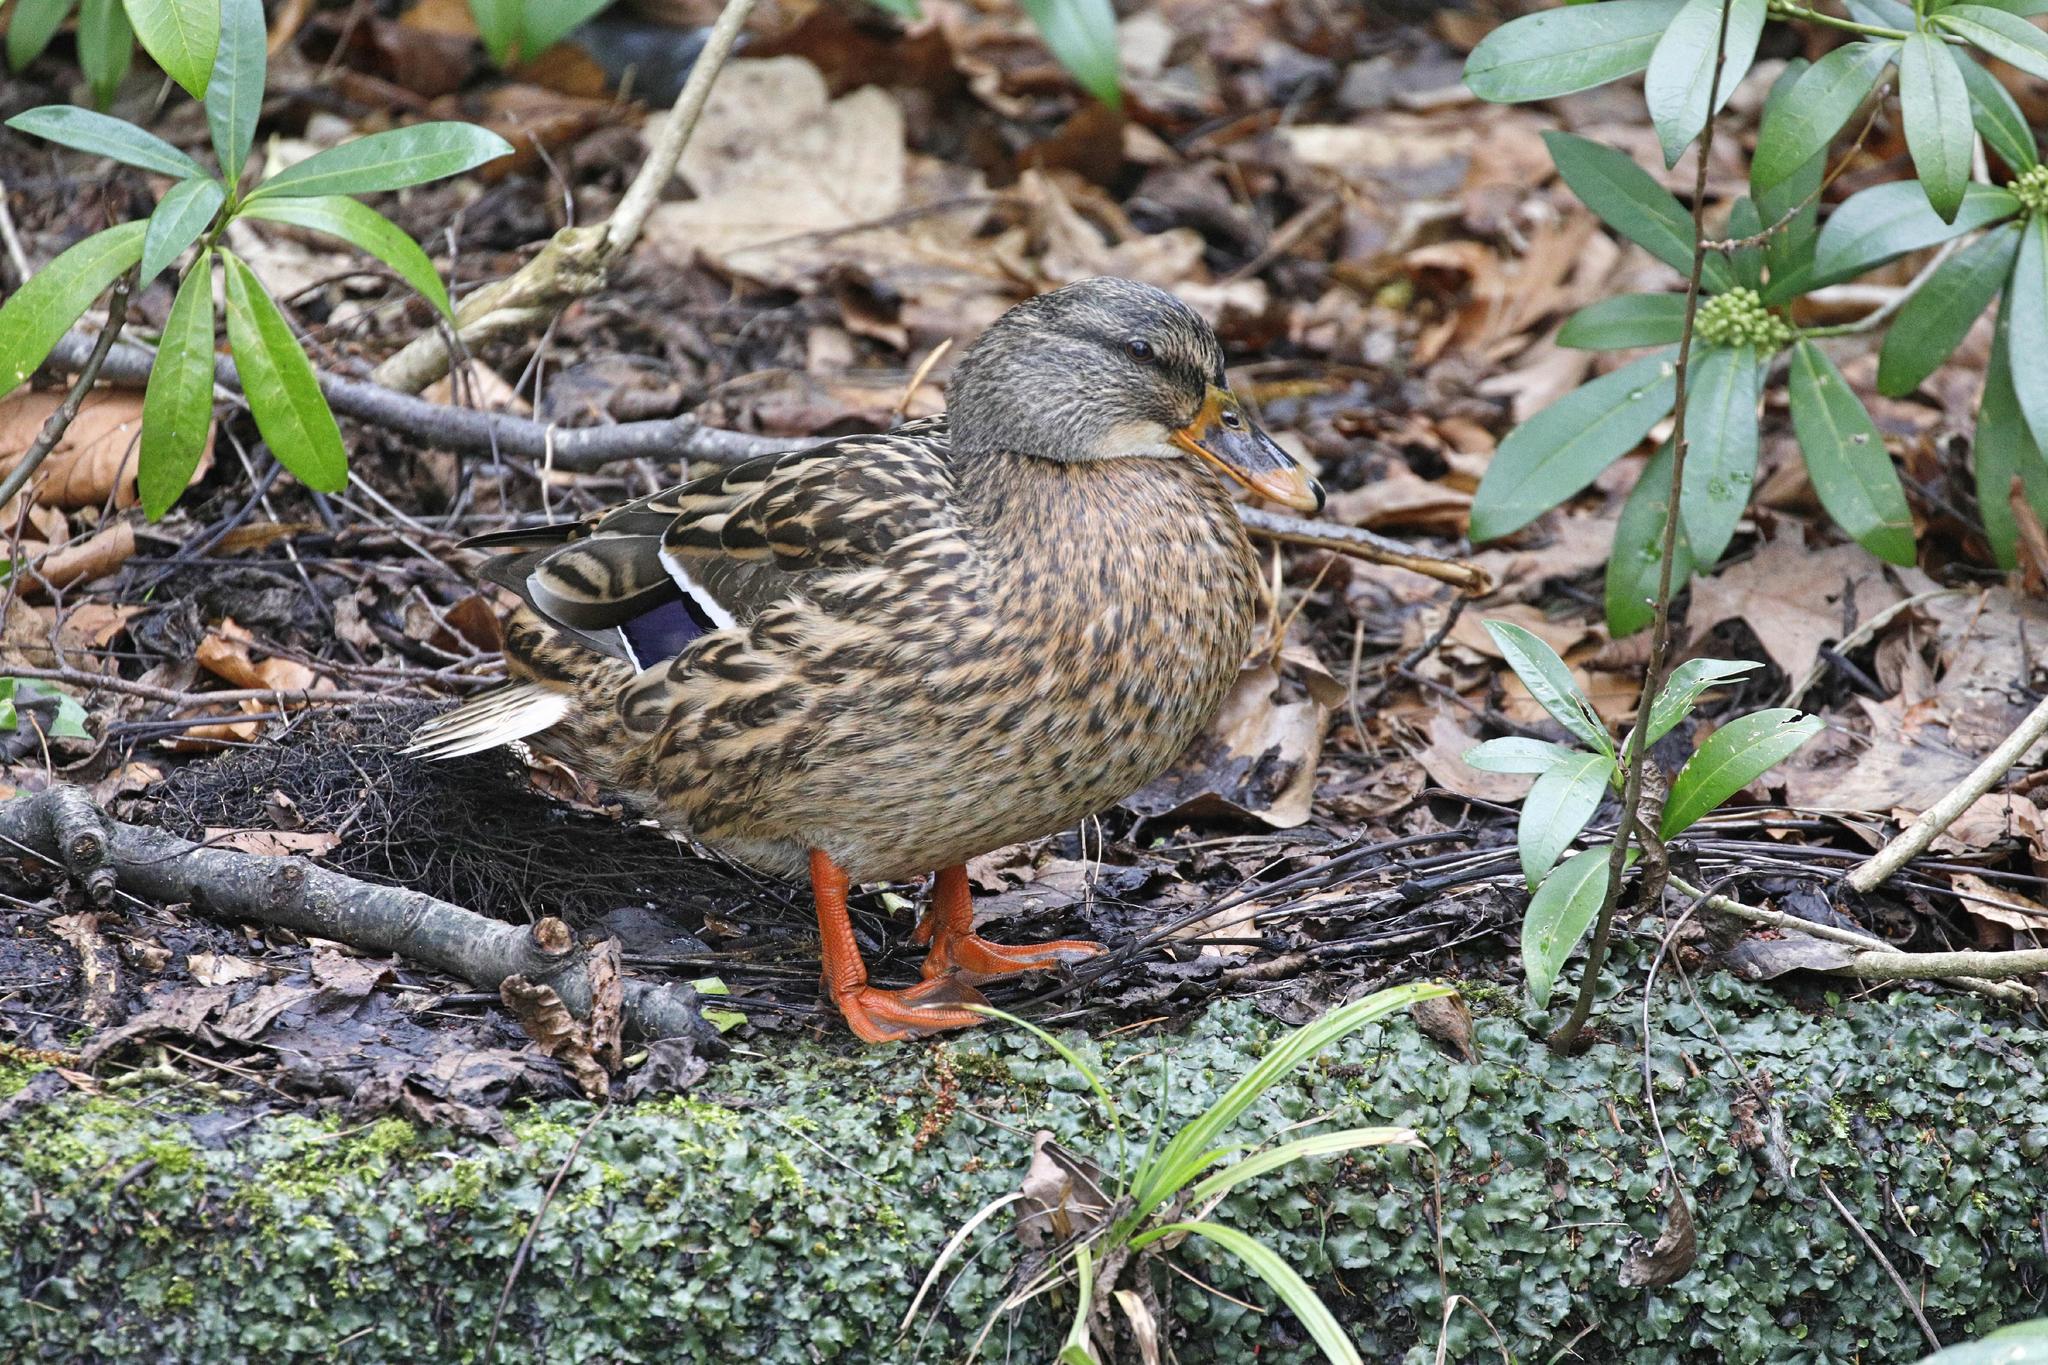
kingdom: Animalia
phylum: Chordata
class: Aves
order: Anseriformes
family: Anatidae
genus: Anas
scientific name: Anas platyrhynchos
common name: Mallard
